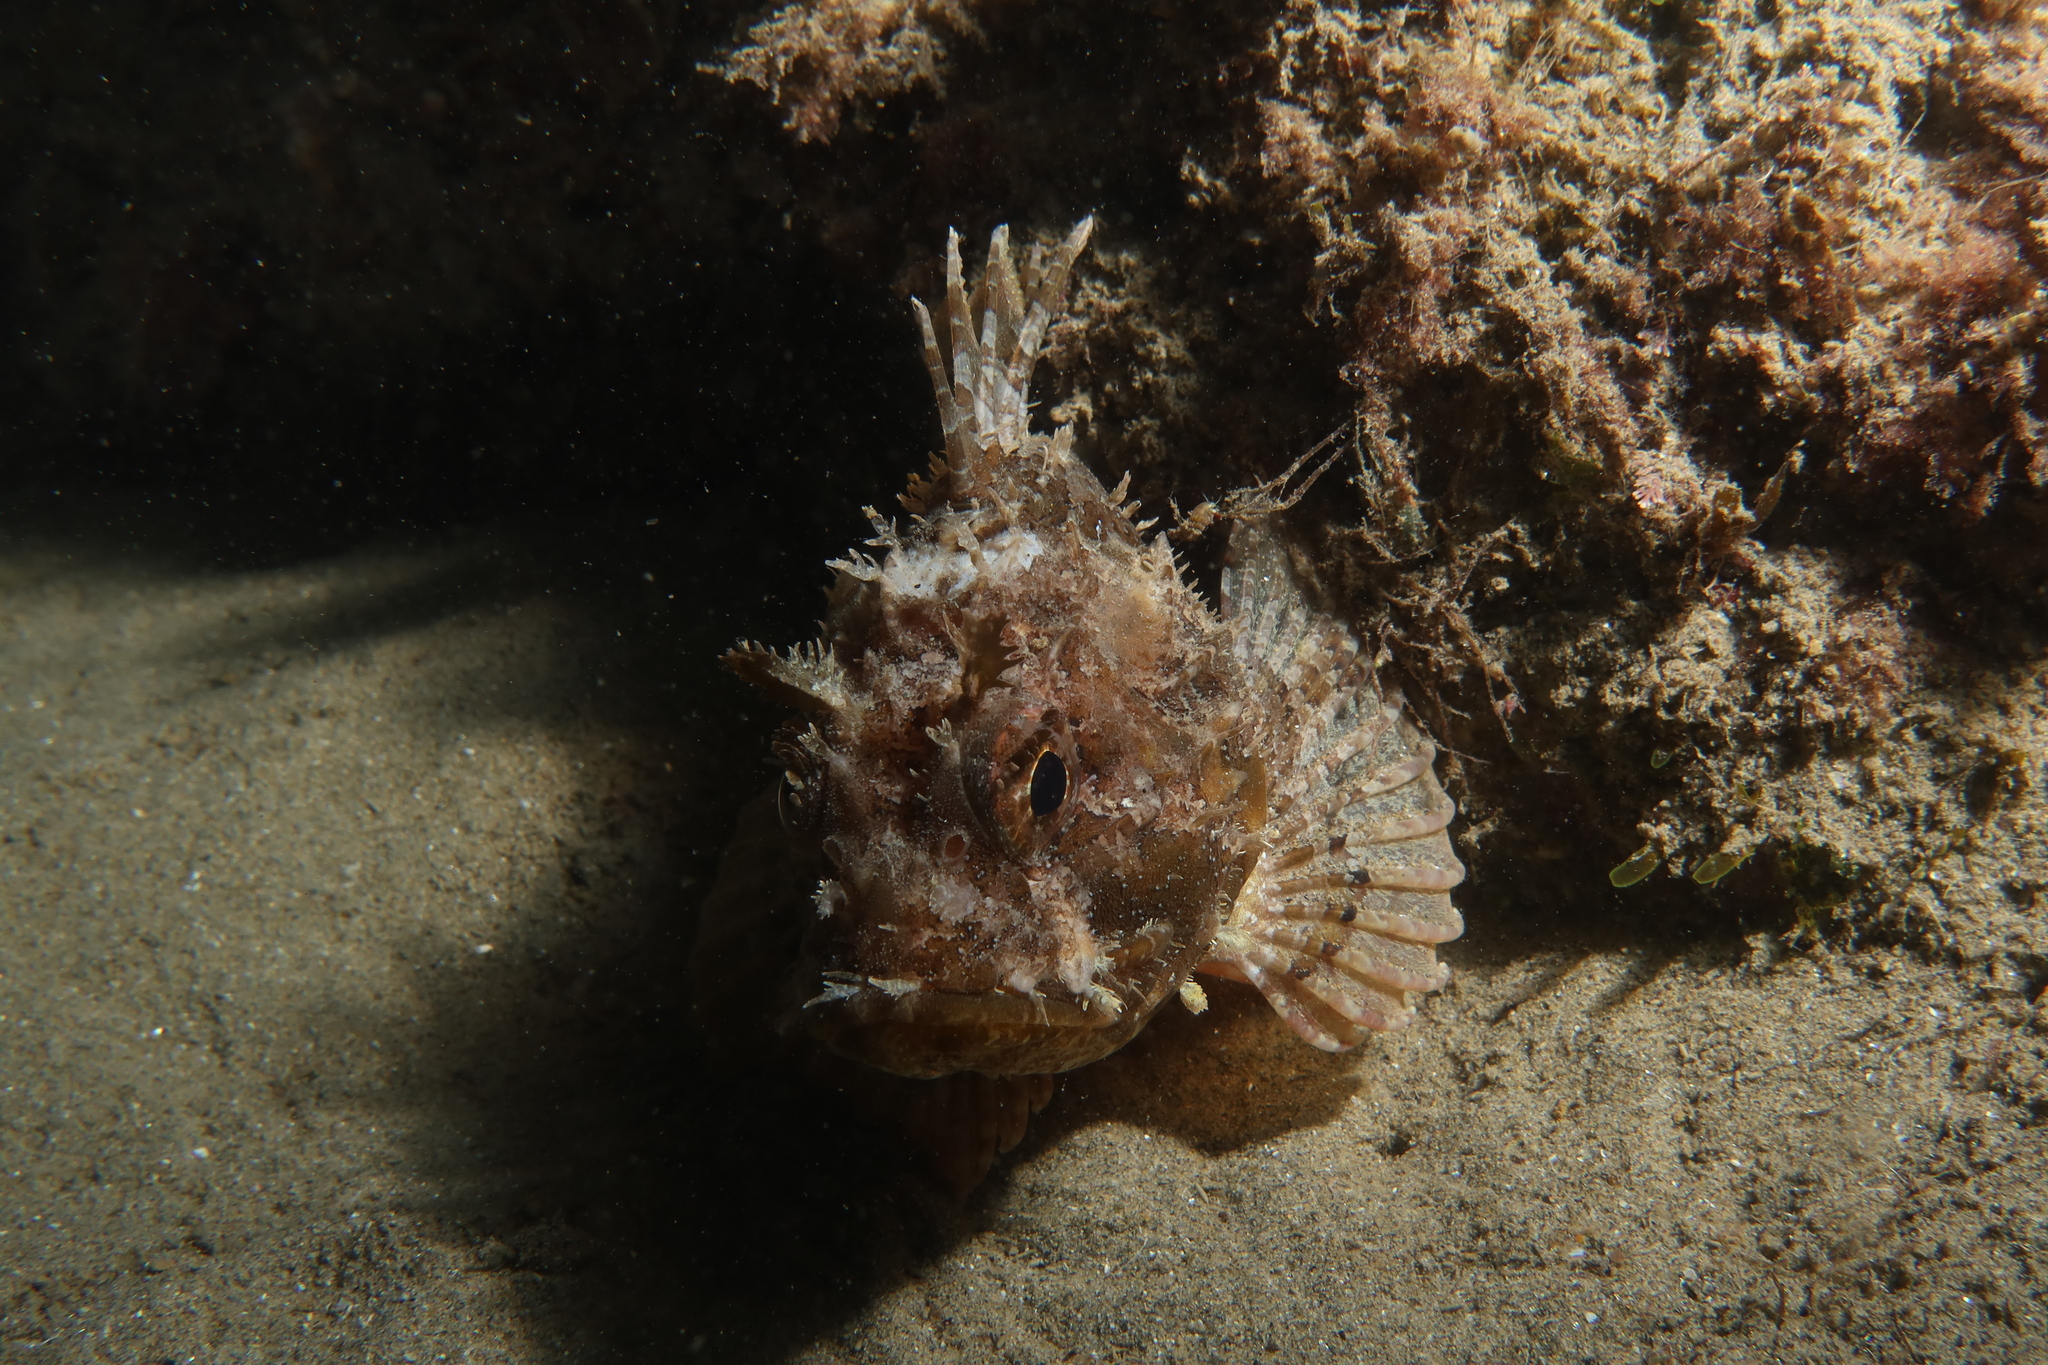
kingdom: Animalia
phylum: Chordata
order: Scorpaeniformes
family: Scorpaenidae
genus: Scorpaena
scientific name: Scorpaena porcus
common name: Black scorpionfish
